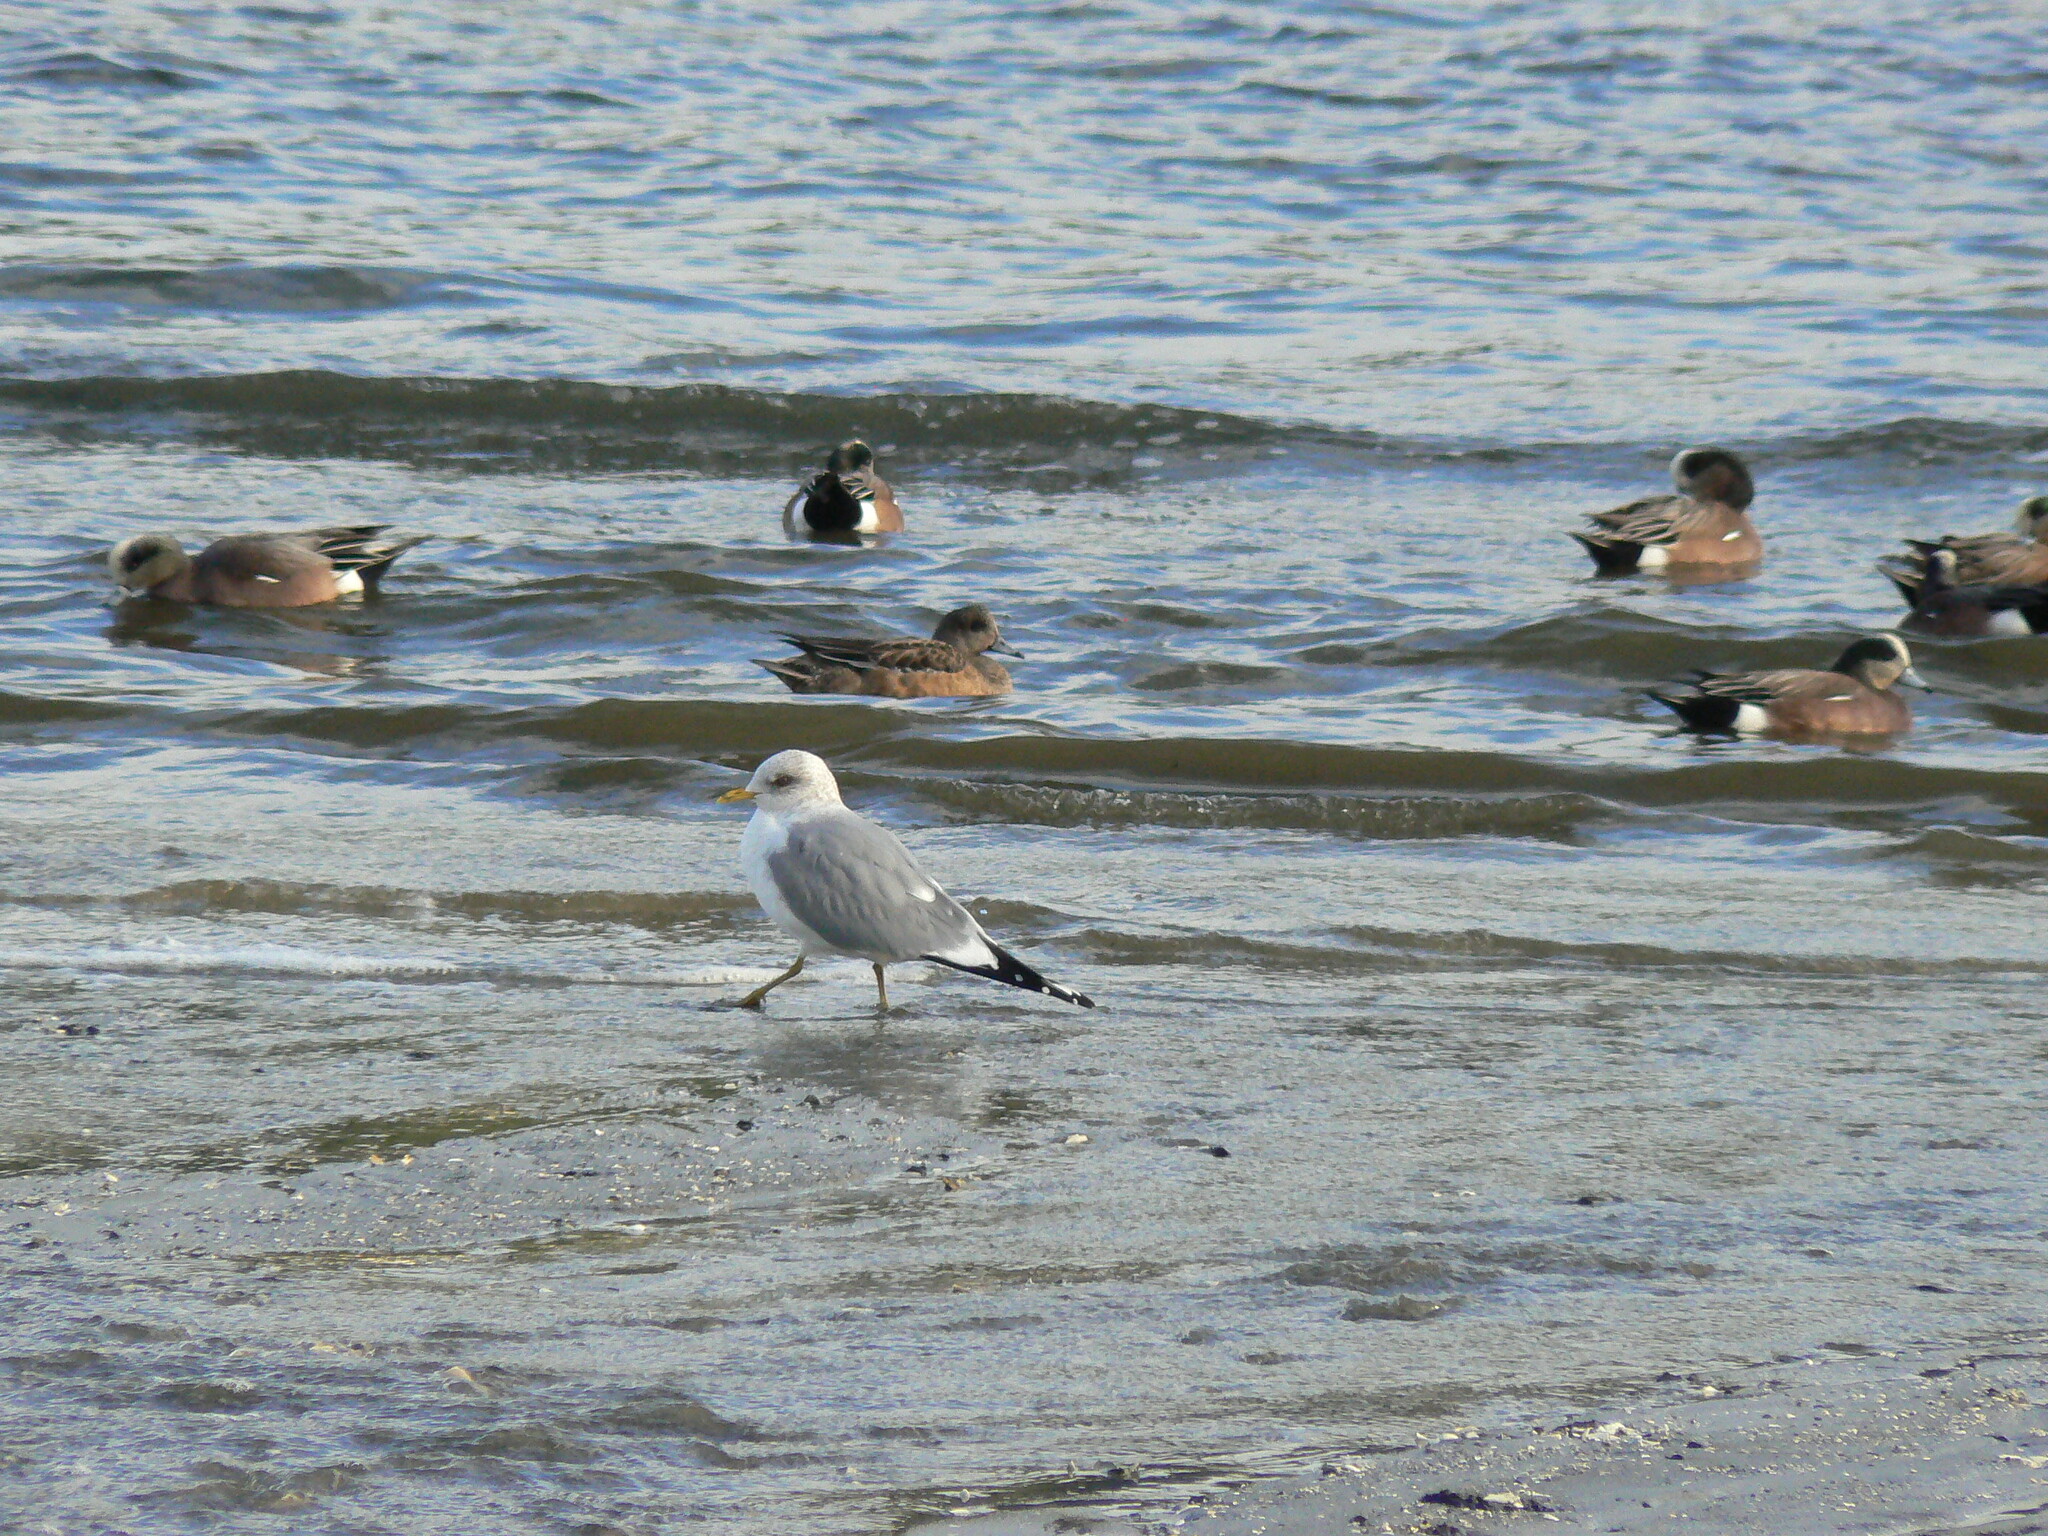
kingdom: Animalia
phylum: Chordata
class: Aves
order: Charadriiformes
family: Laridae
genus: Larus
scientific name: Larus brachyrhynchus
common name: Short-billed gull
